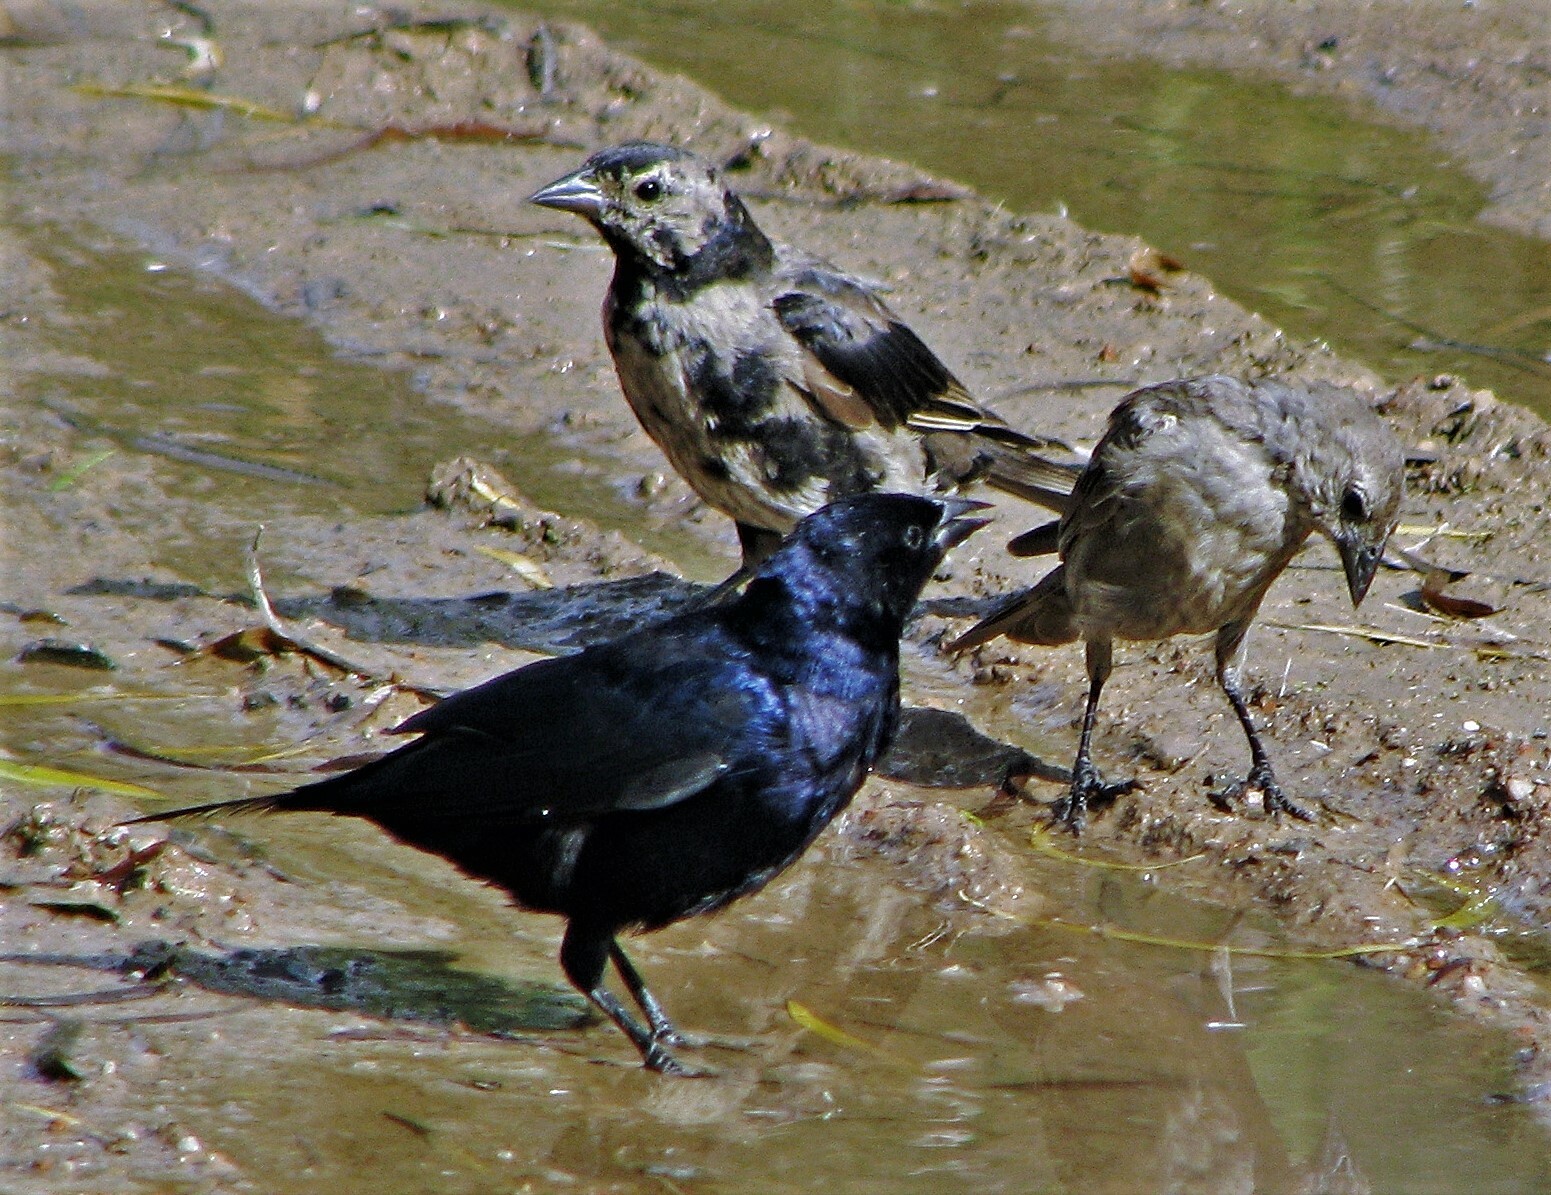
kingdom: Animalia
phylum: Chordata
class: Aves
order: Passeriformes
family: Icteridae
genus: Molothrus
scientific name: Molothrus bonariensis
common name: Shiny cowbird
